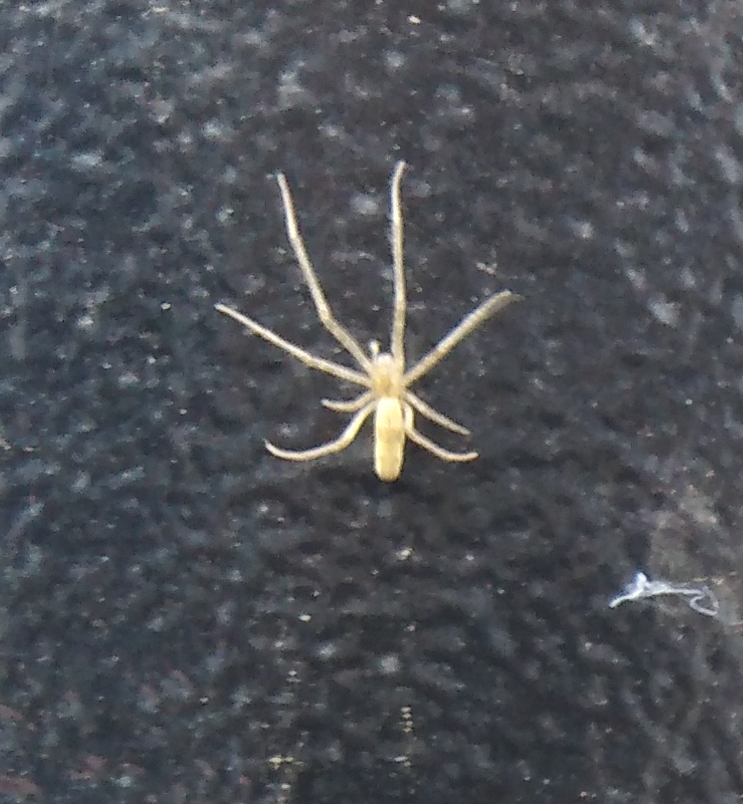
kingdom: Animalia
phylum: Arthropoda
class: Arachnida
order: Araneae
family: Tetragnathidae
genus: Tetragnatha
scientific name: Tetragnatha
